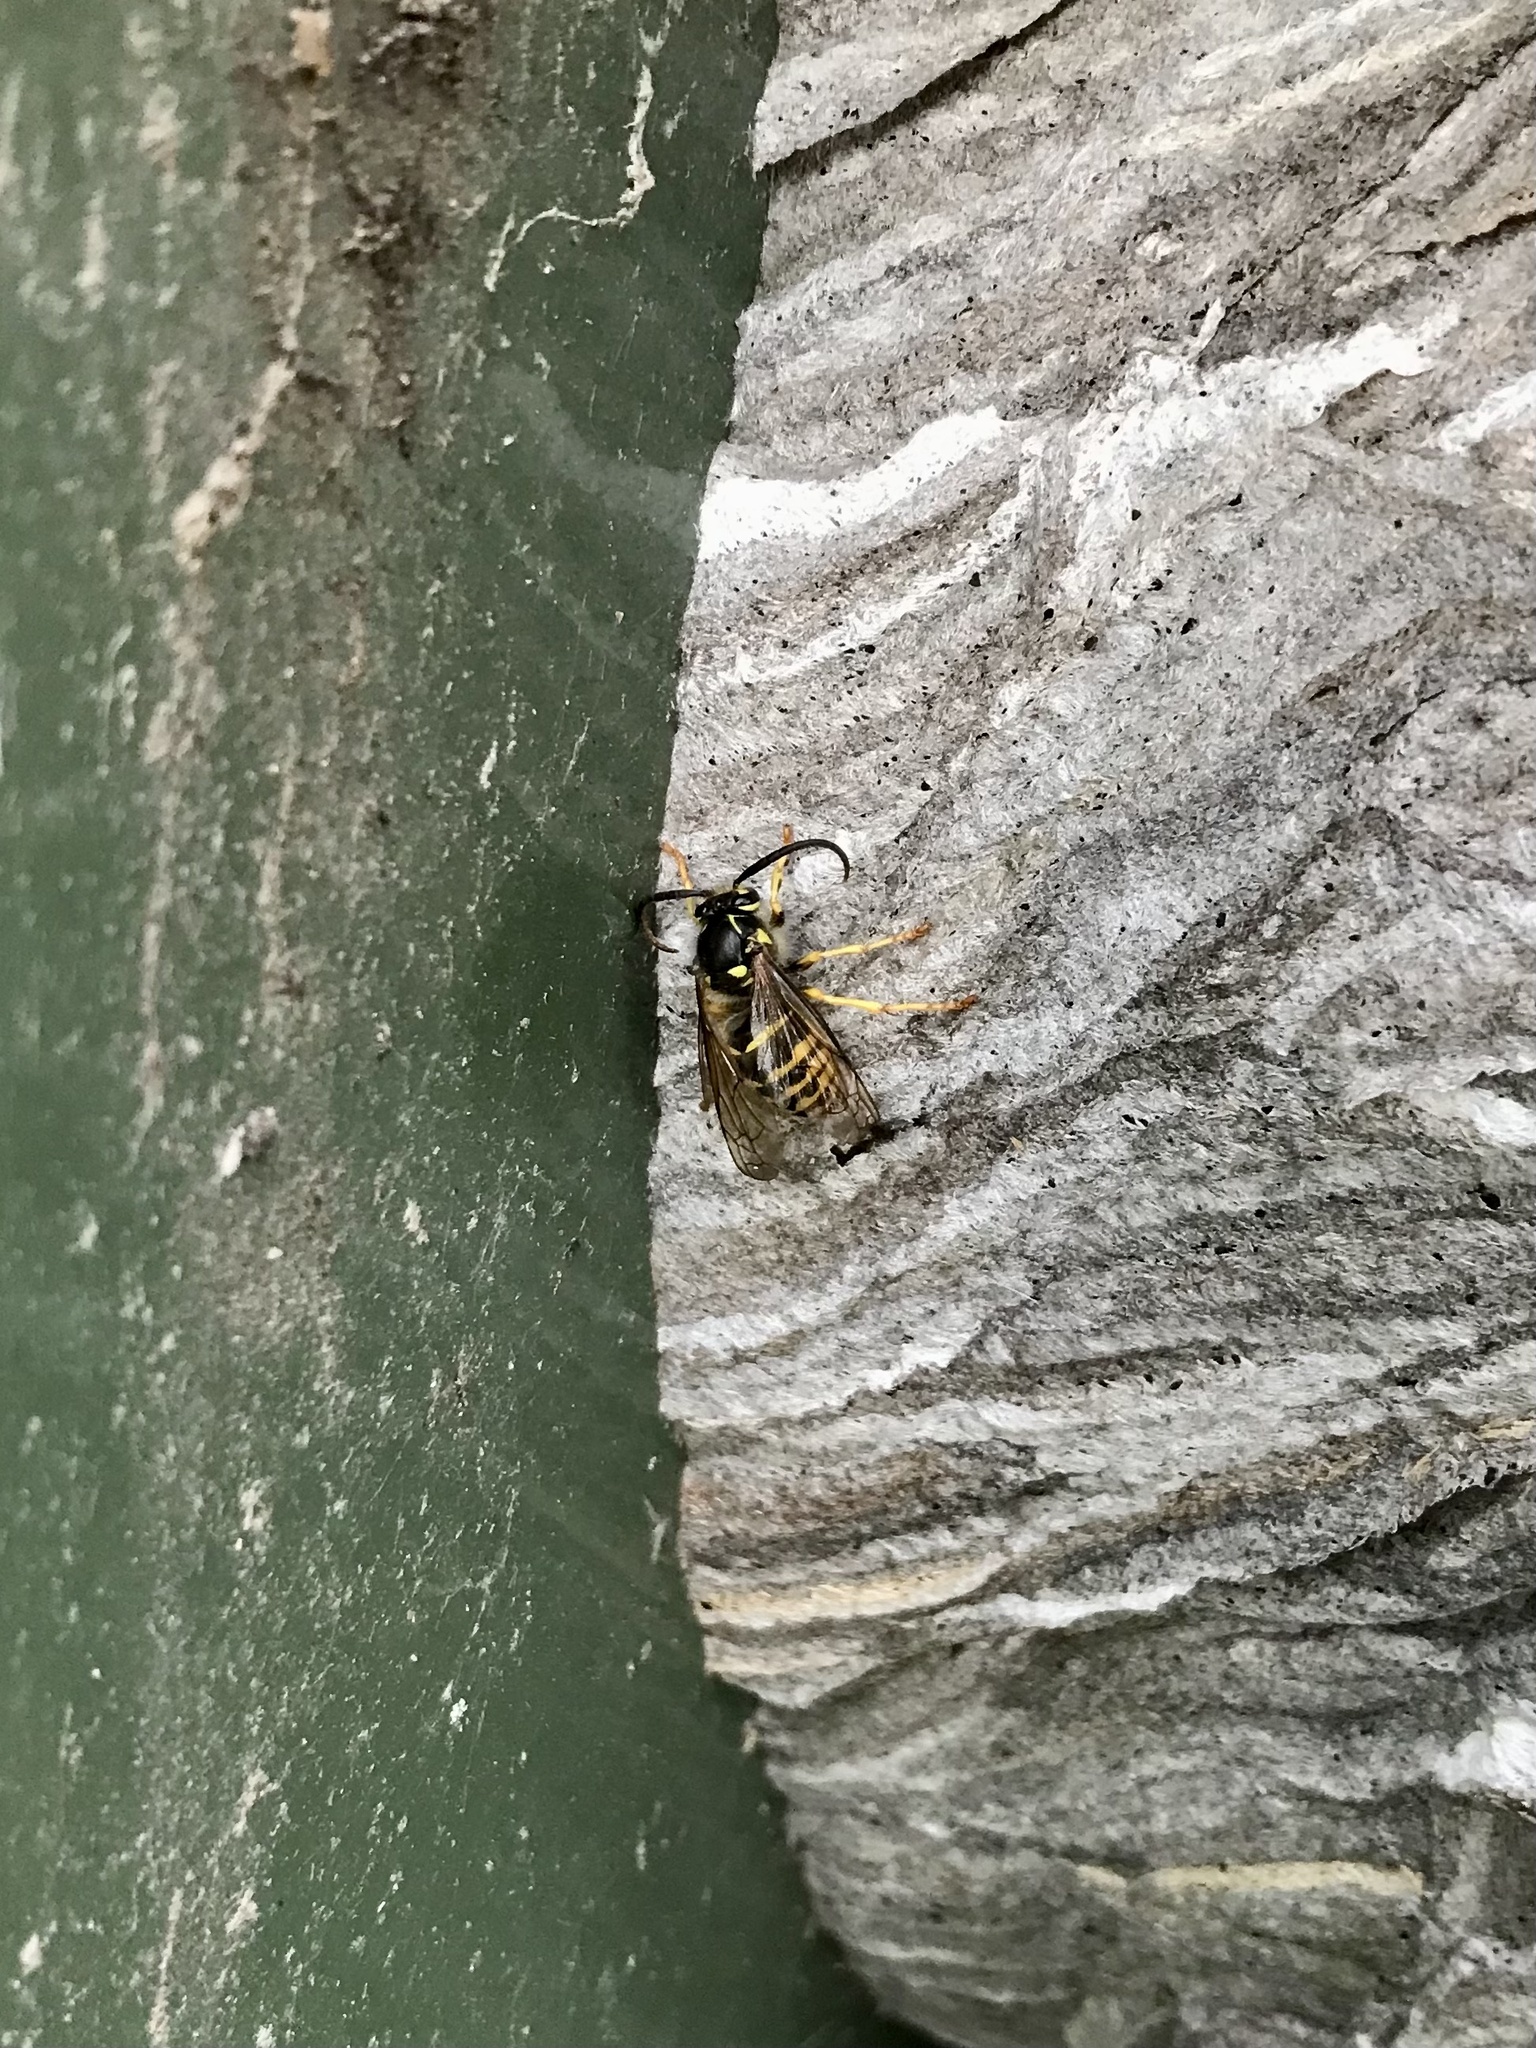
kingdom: Animalia
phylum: Arthropoda
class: Insecta
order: Hymenoptera
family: Vespidae
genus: Dolichovespula
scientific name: Dolichovespula arenaria
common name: Aerial yellowjacket
